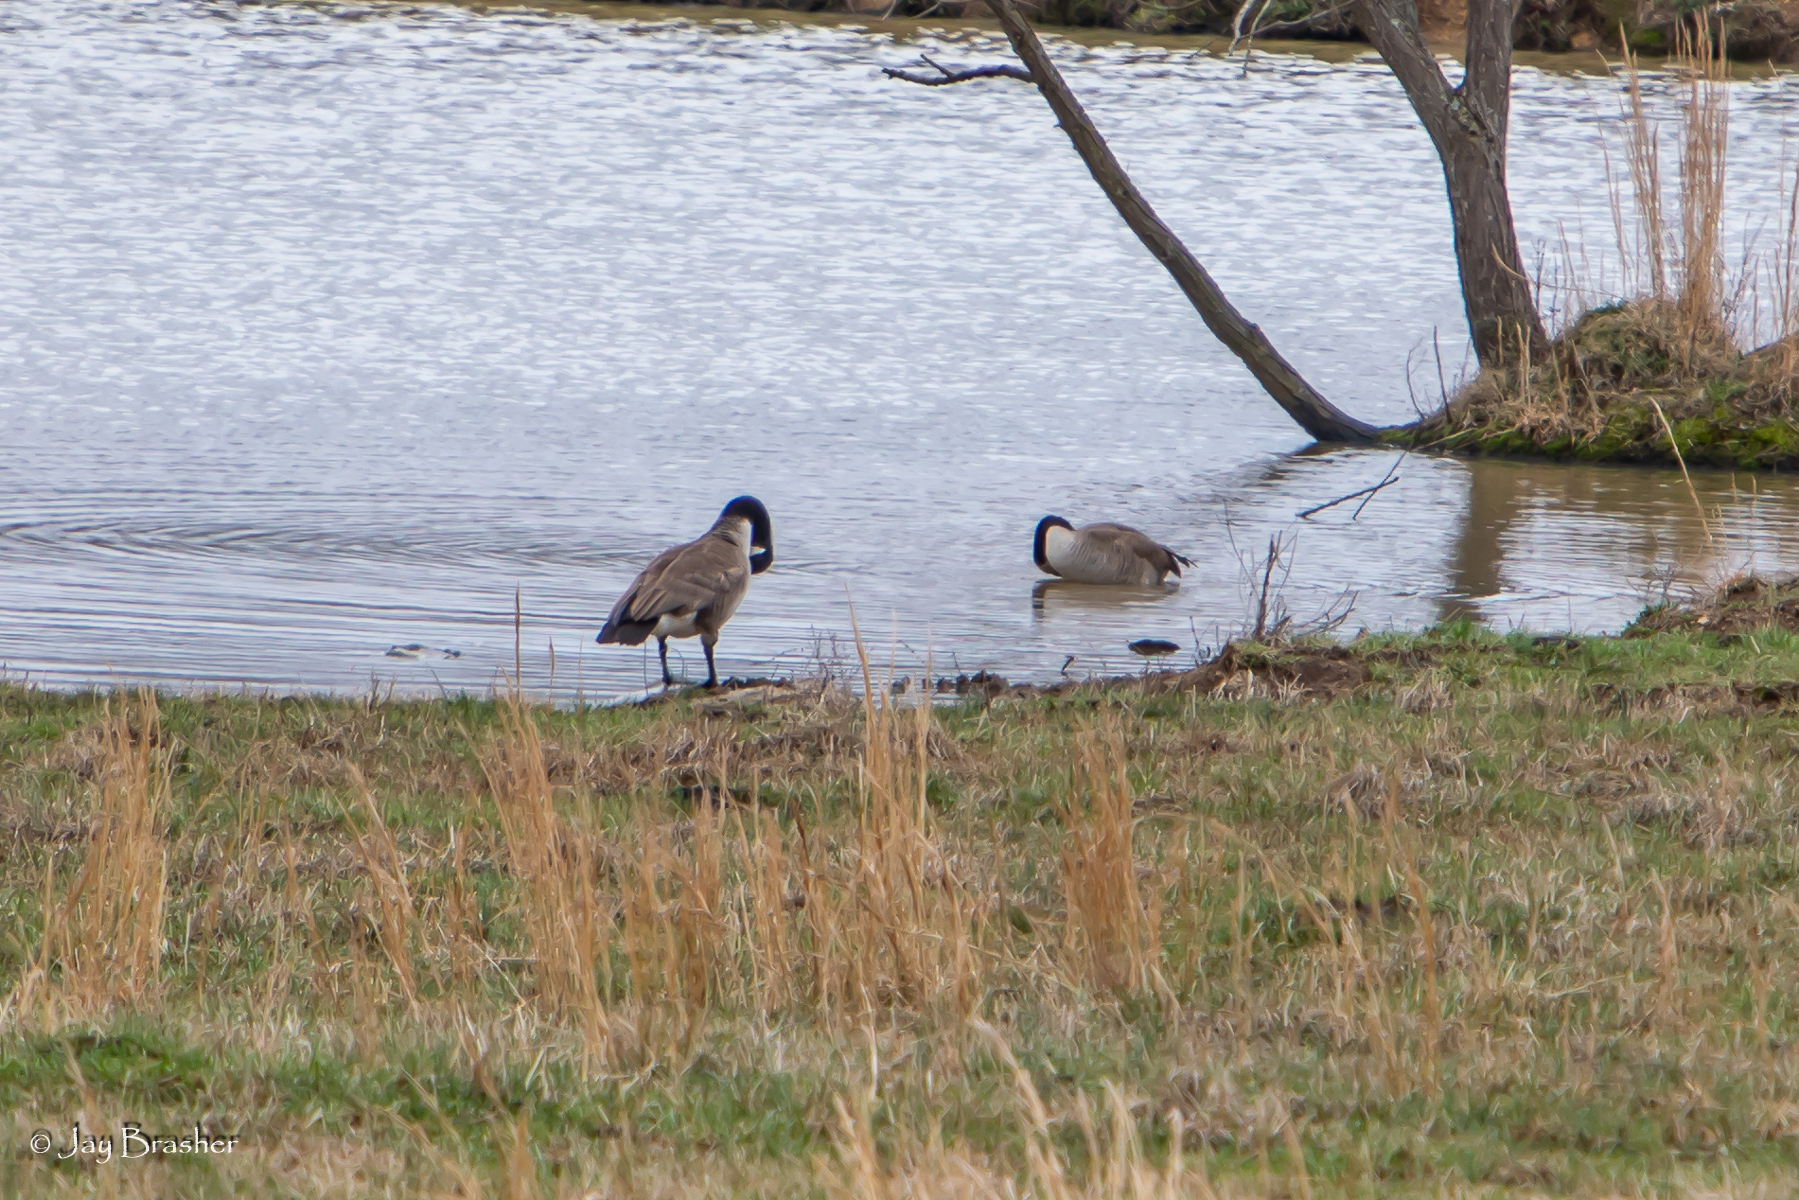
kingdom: Animalia
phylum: Chordata
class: Aves
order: Anseriformes
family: Anatidae
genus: Branta
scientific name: Branta canadensis
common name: Canada goose
